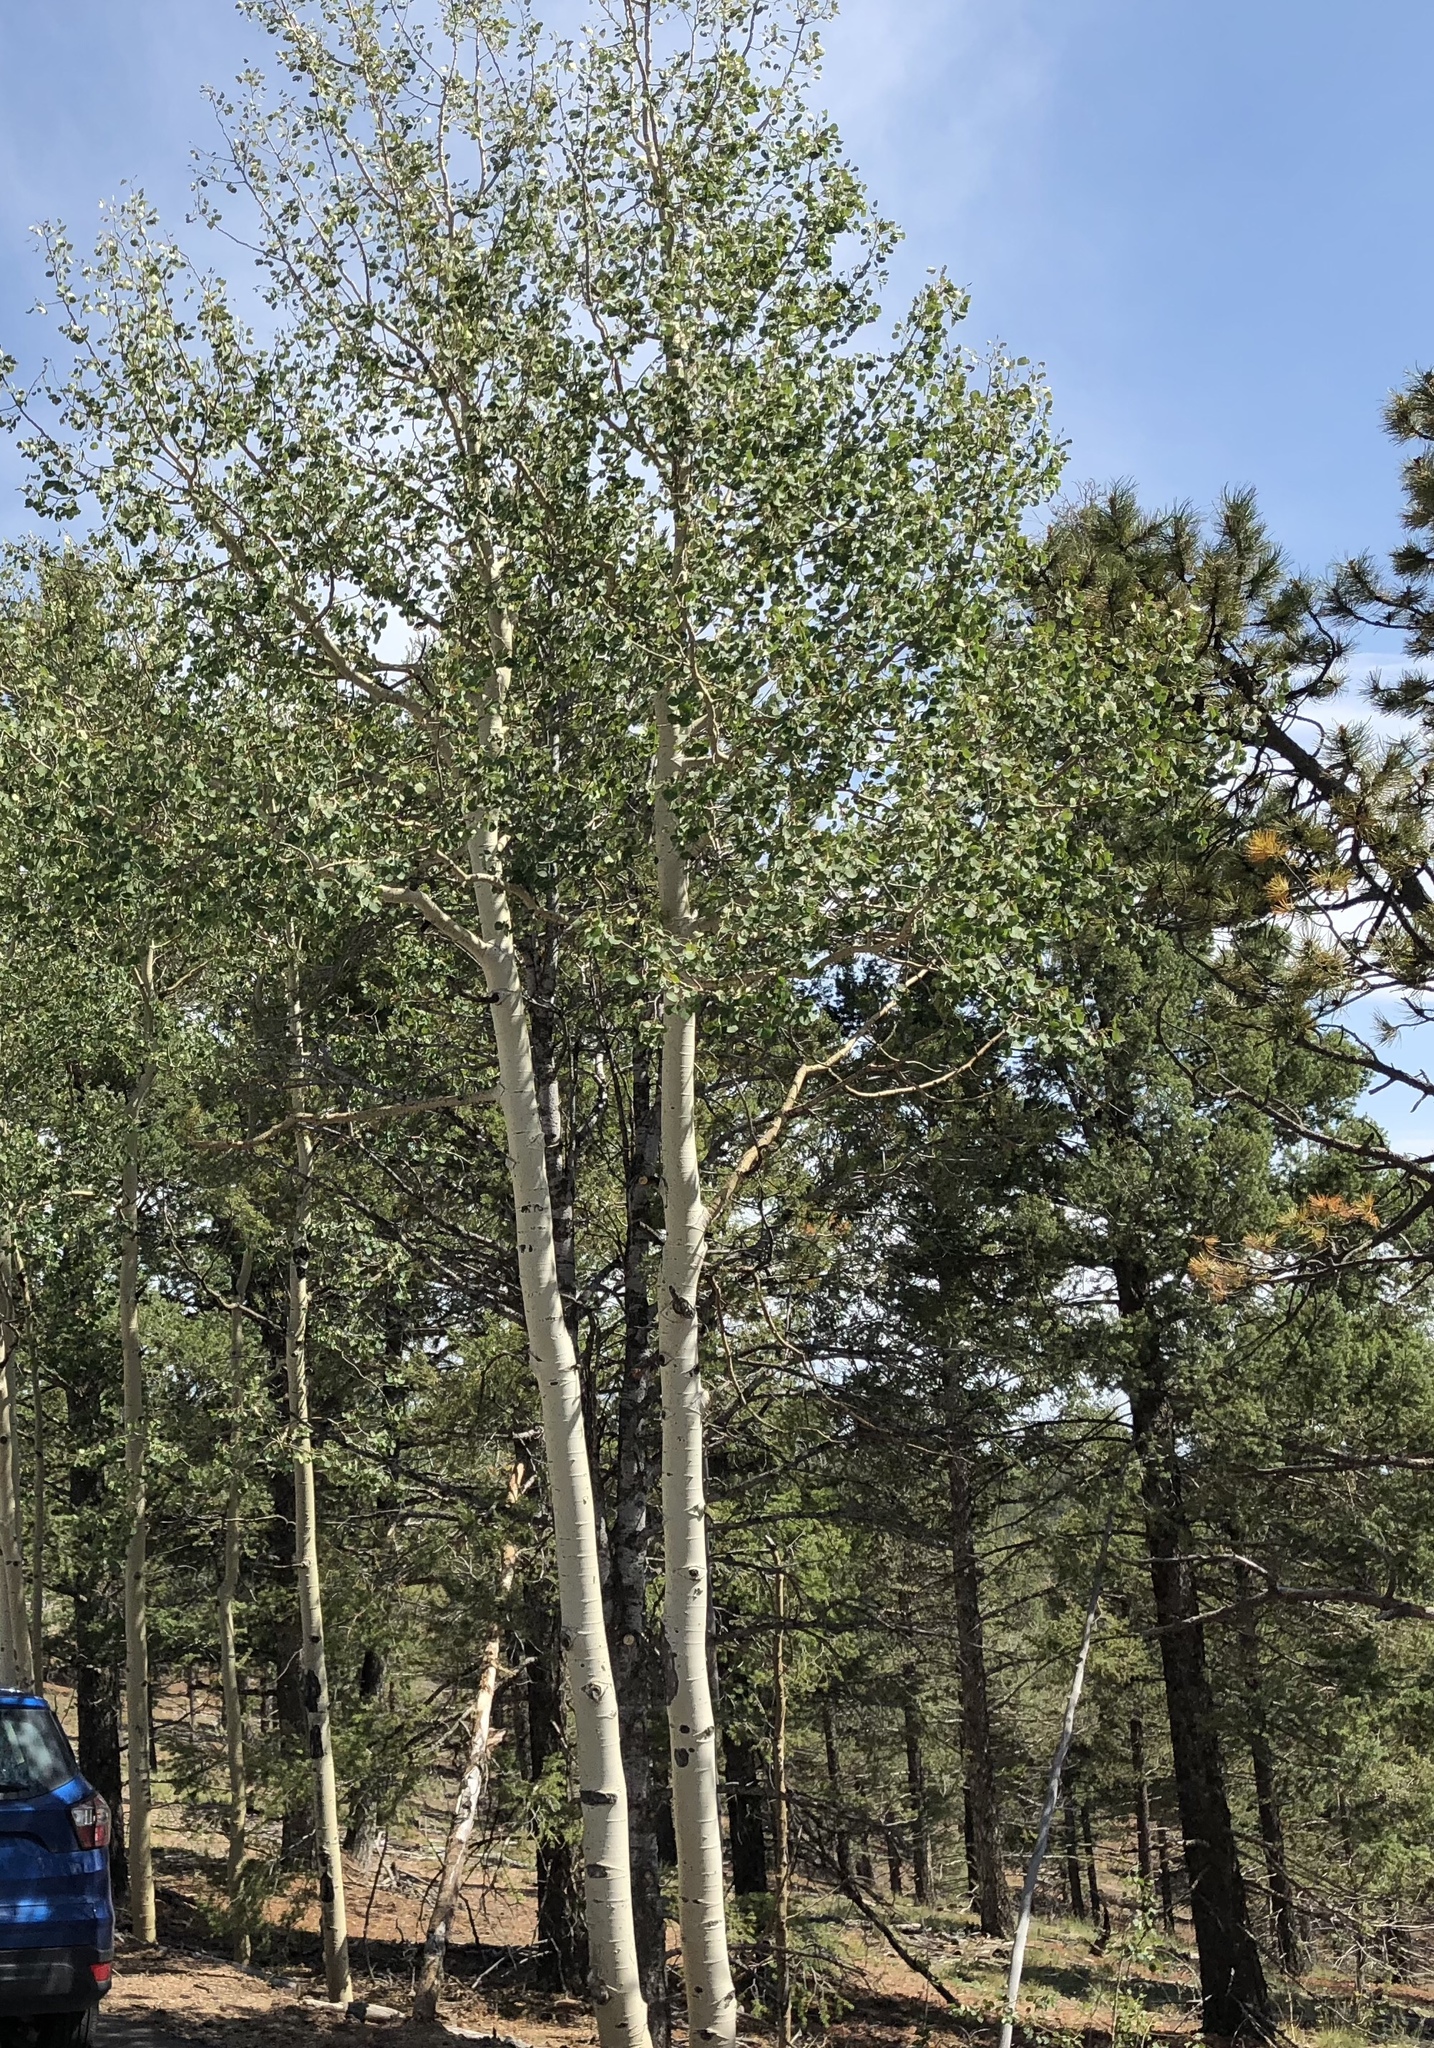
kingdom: Plantae
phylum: Tracheophyta
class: Magnoliopsida
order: Malpighiales
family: Salicaceae
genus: Populus
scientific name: Populus tremuloides
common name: Quaking aspen
